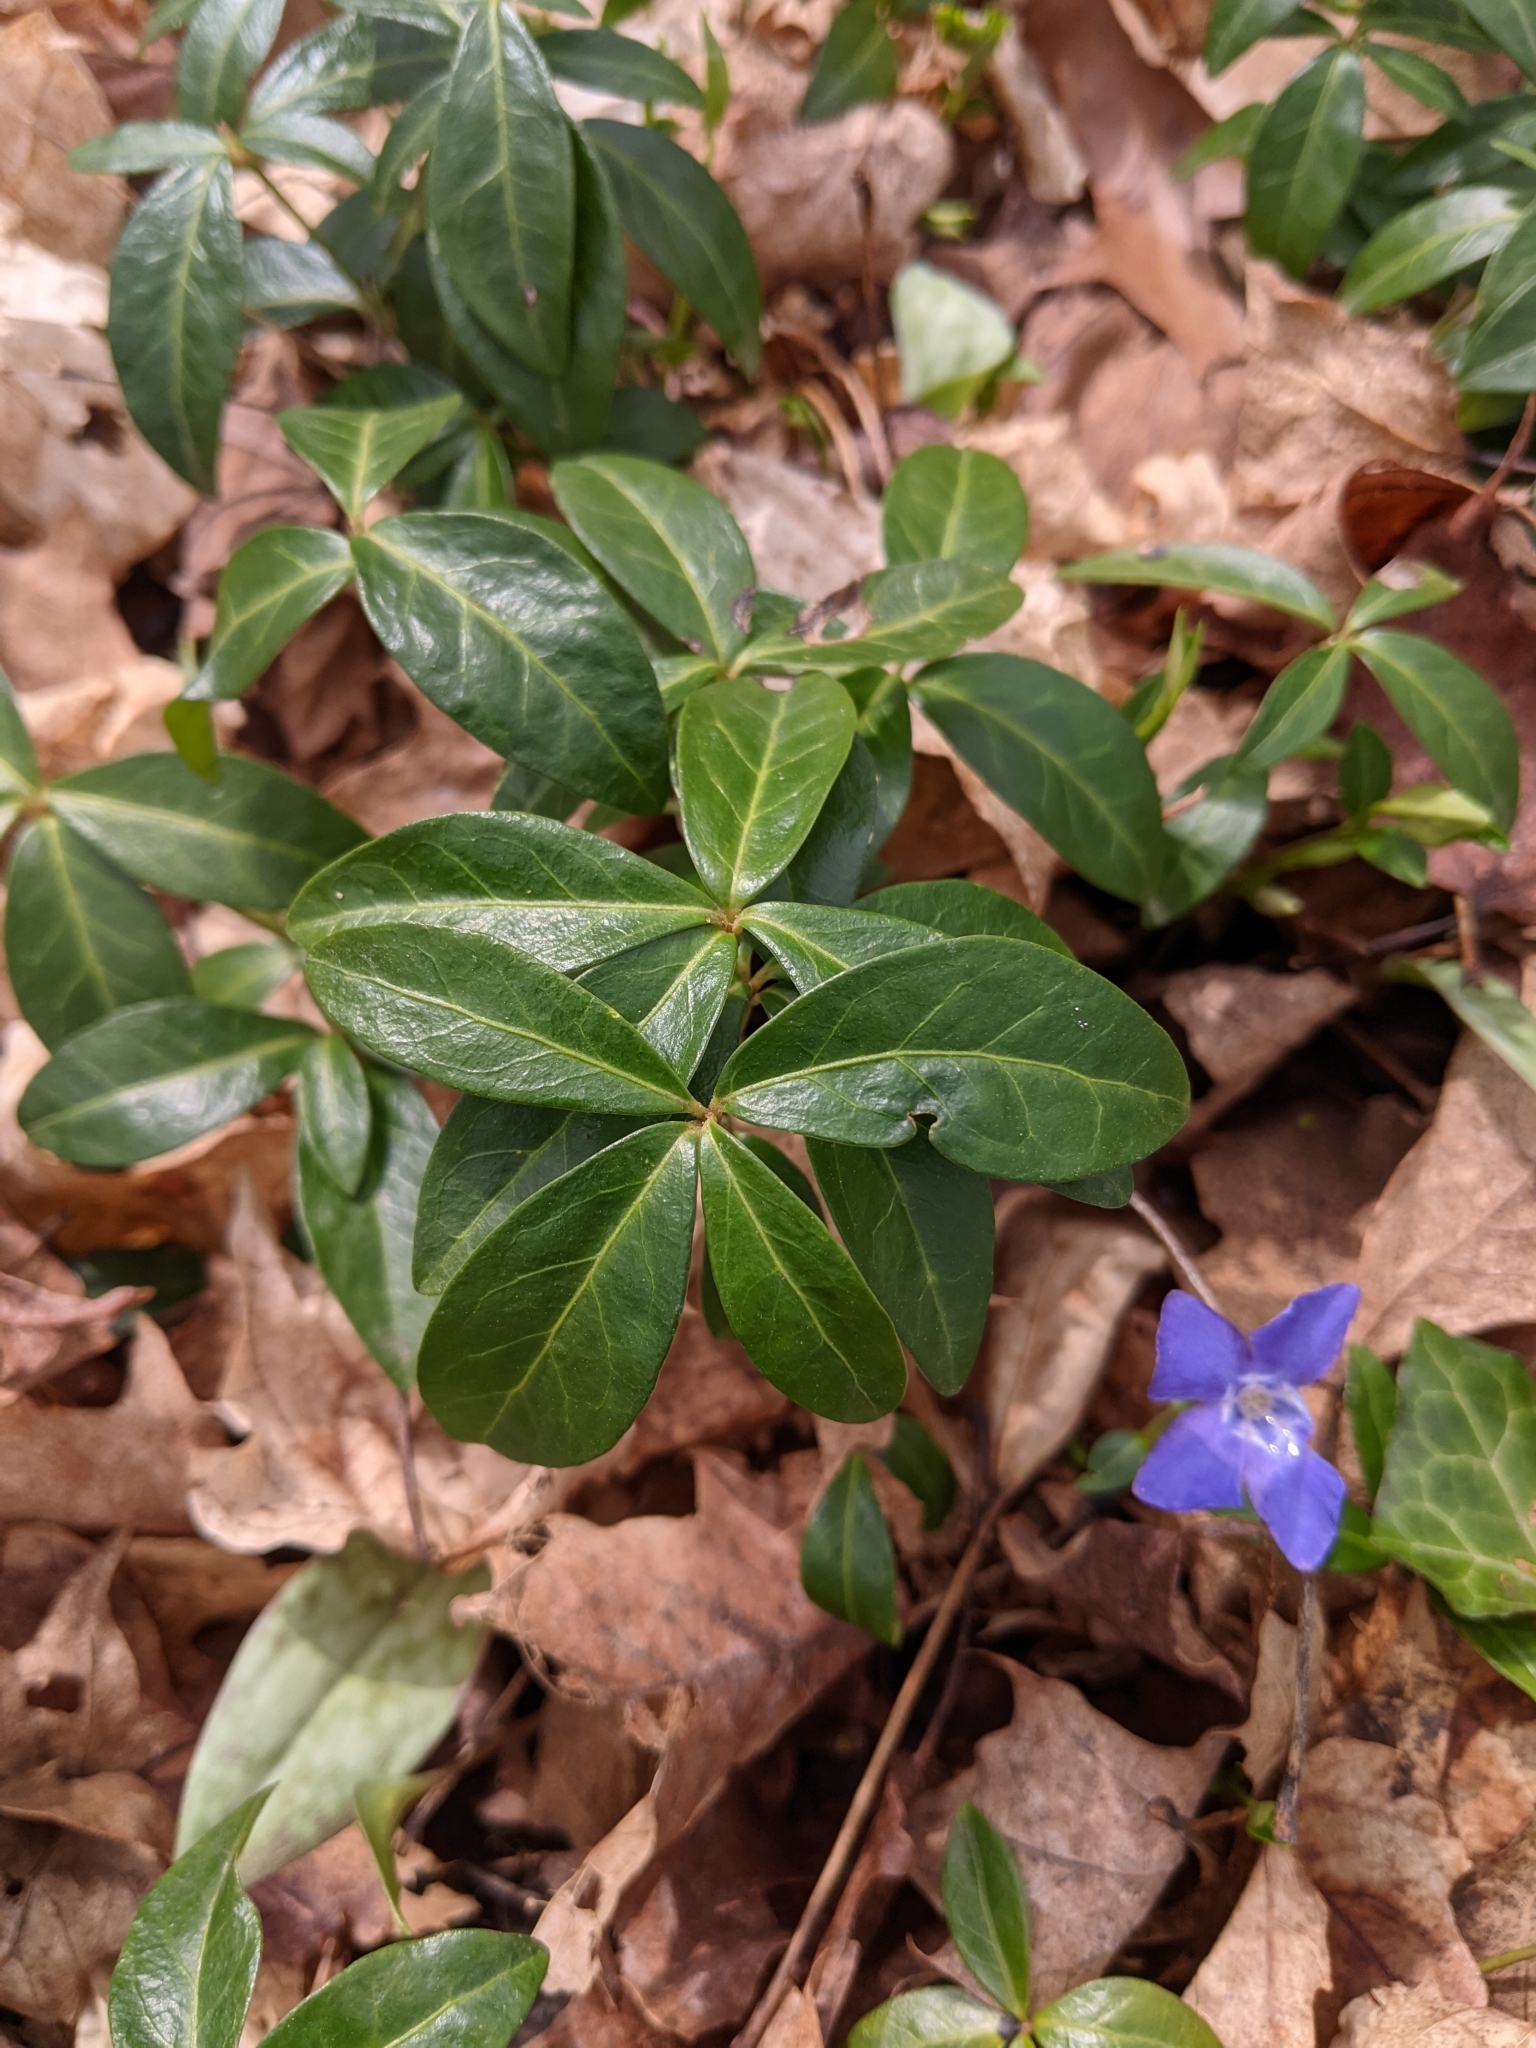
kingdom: Plantae
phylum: Tracheophyta
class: Magnoliopsida
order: Gentianales
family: Apocynaceae
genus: Vinca
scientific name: Vinca minor
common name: Lesser periwinkle
